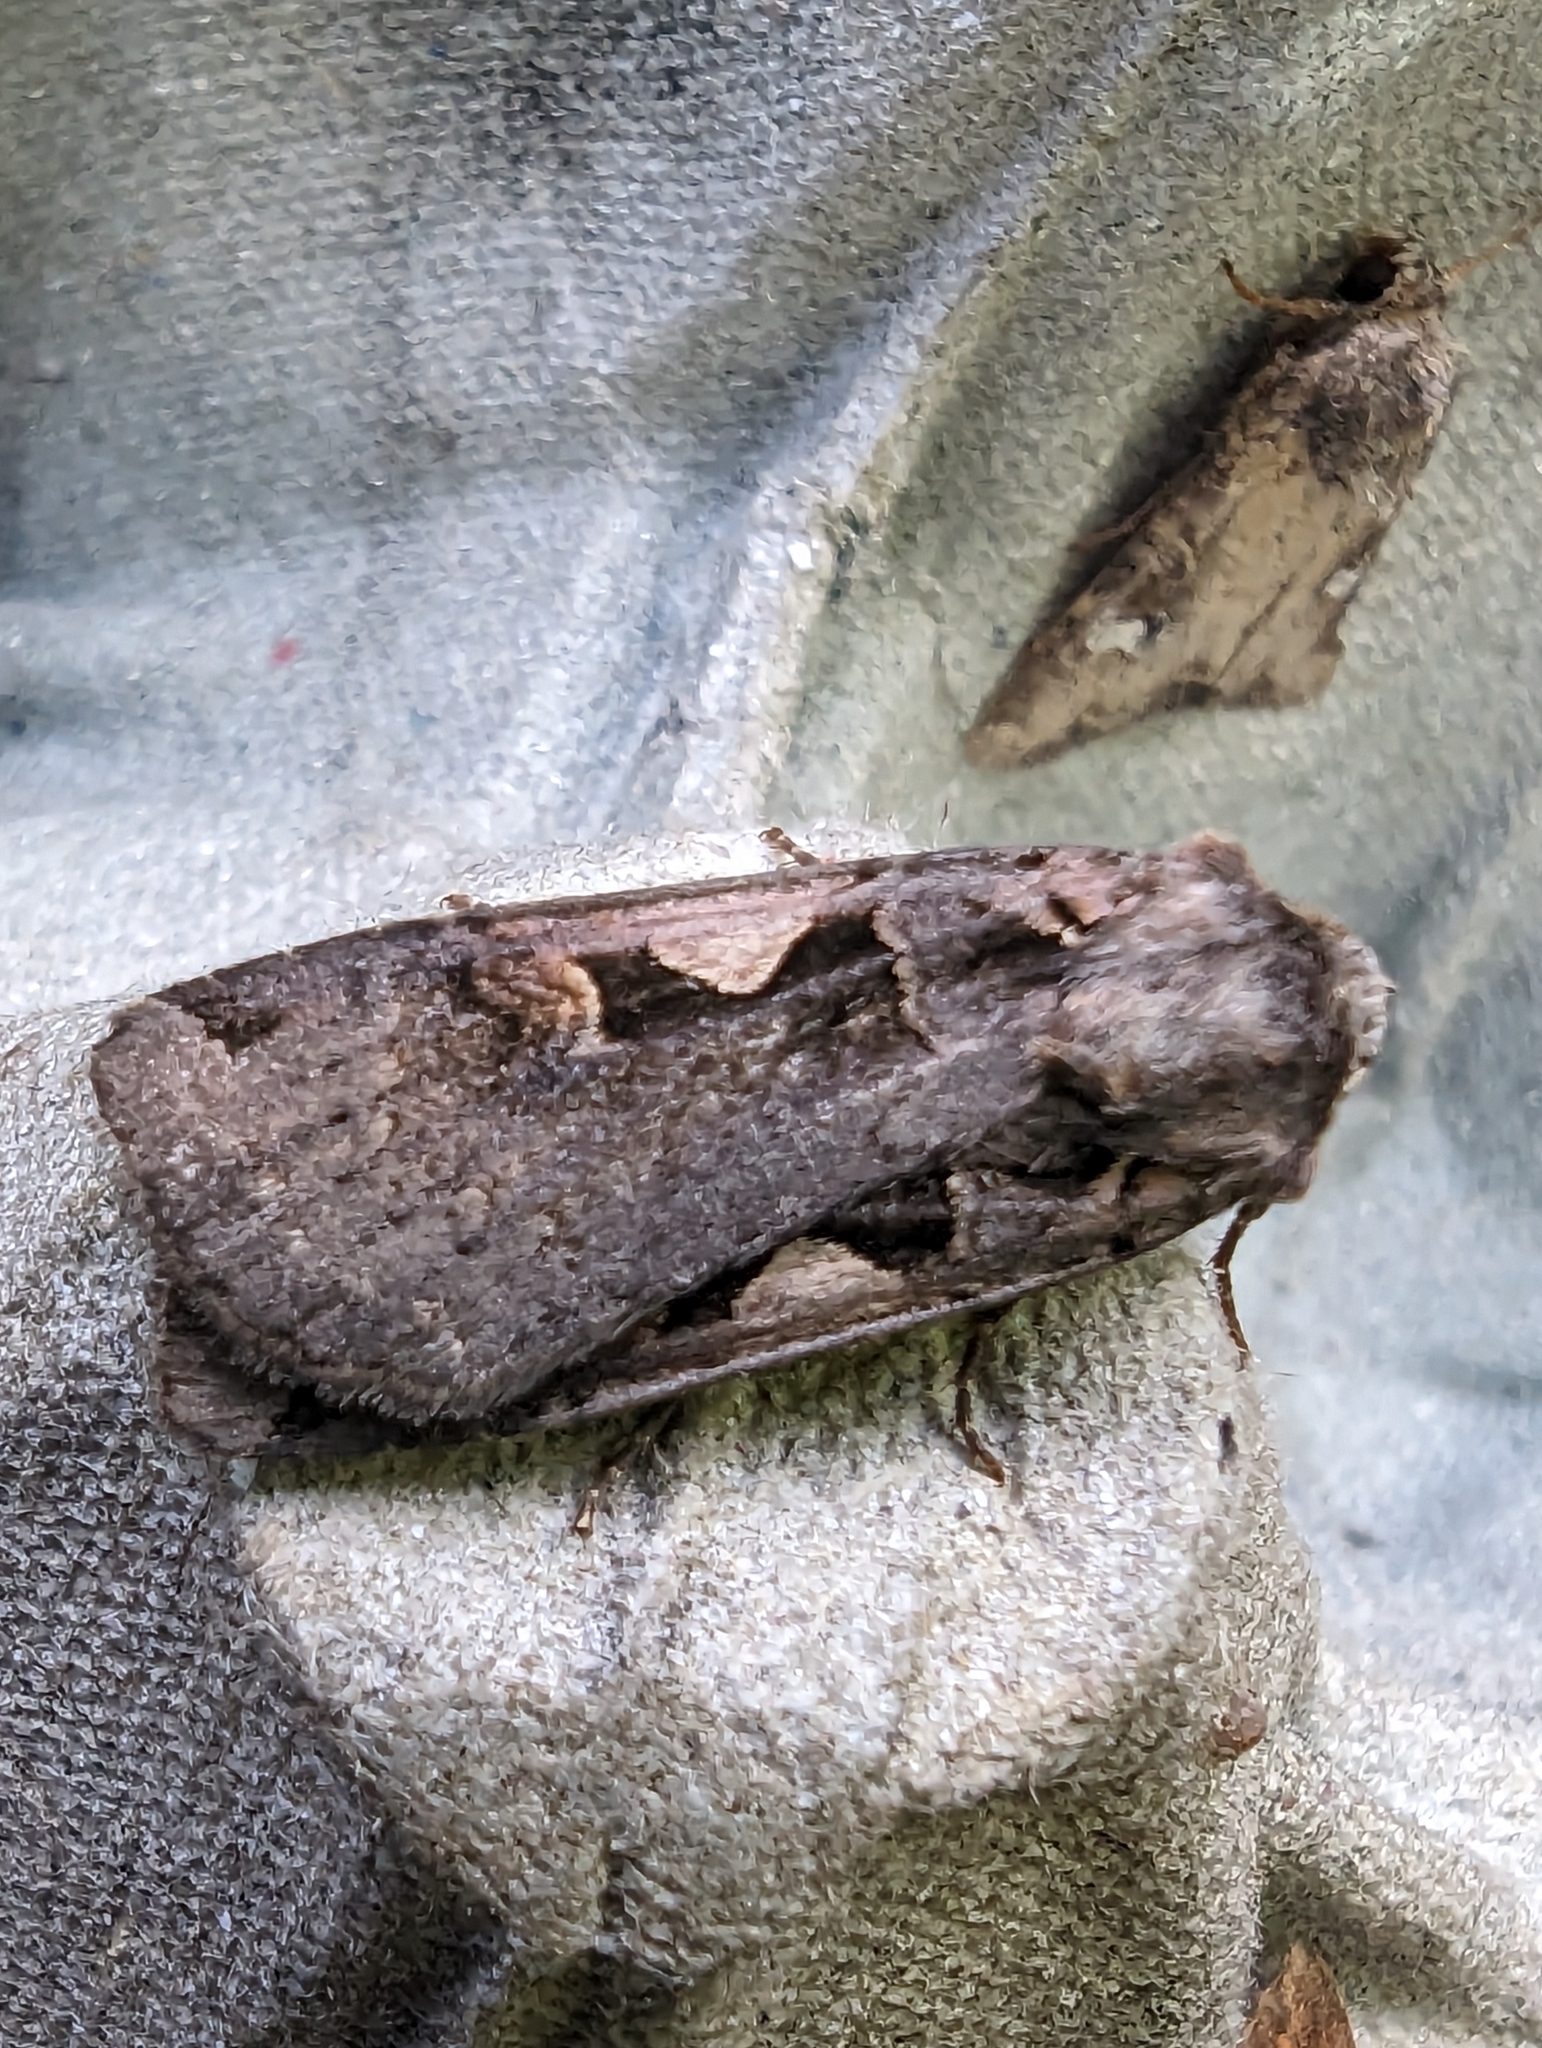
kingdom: Animalia
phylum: Arthropoda
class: Insecta
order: Lepidoptera
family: Noctuidae
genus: Xestia
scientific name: Xestia c-nigrum
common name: Setaceous hebrew character
